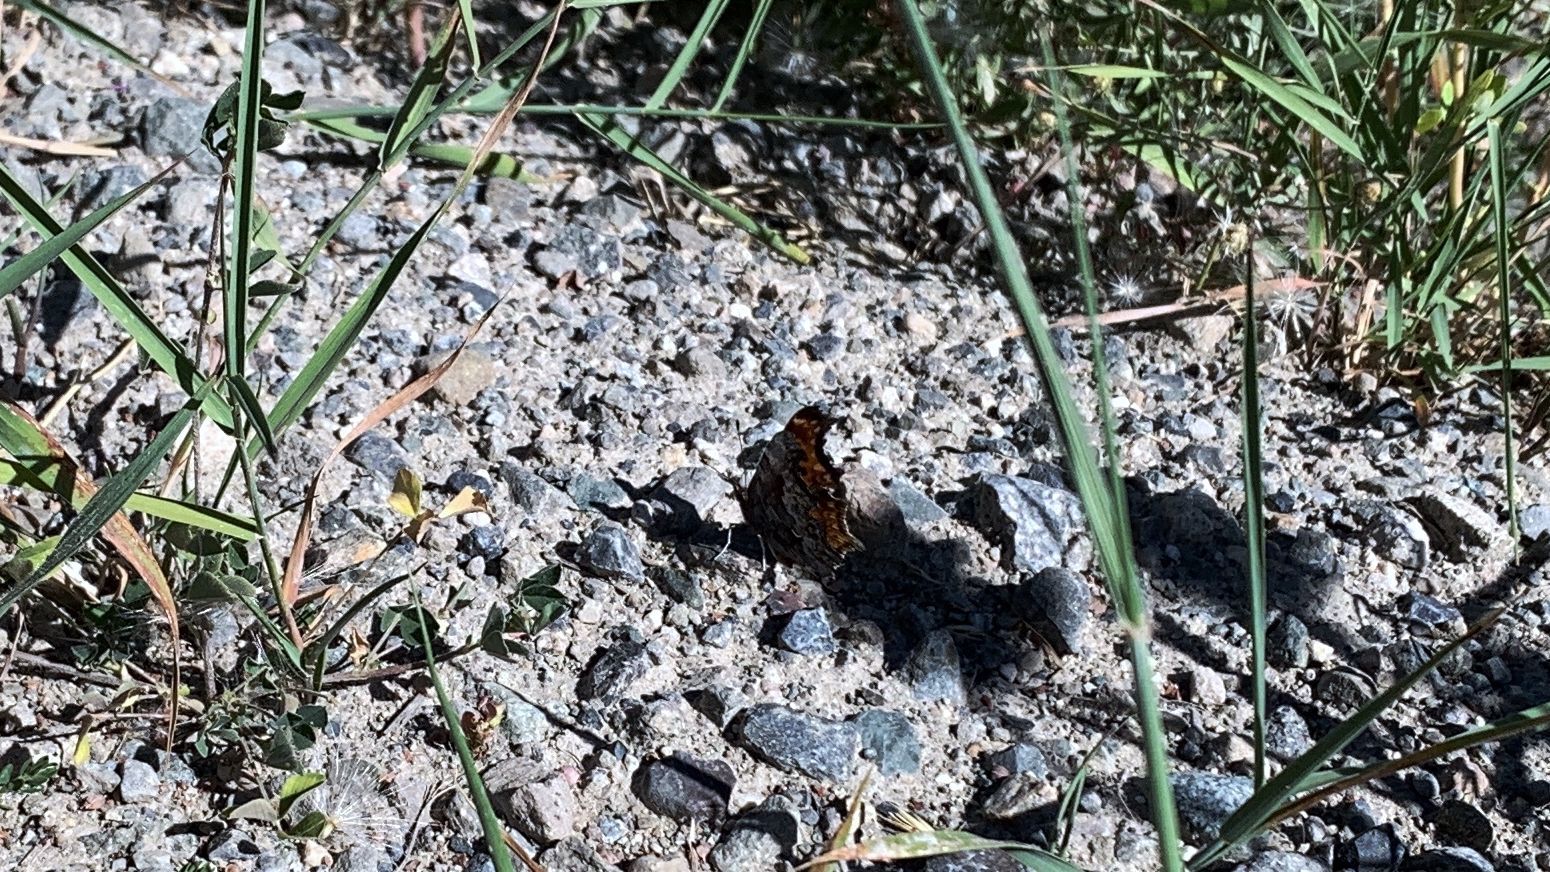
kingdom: Animalia
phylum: Arthropoda
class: Insecta
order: Lepidoptera
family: Nymphalidae
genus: Polygonia
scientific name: Polygonia gracilis
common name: Hoary comma
